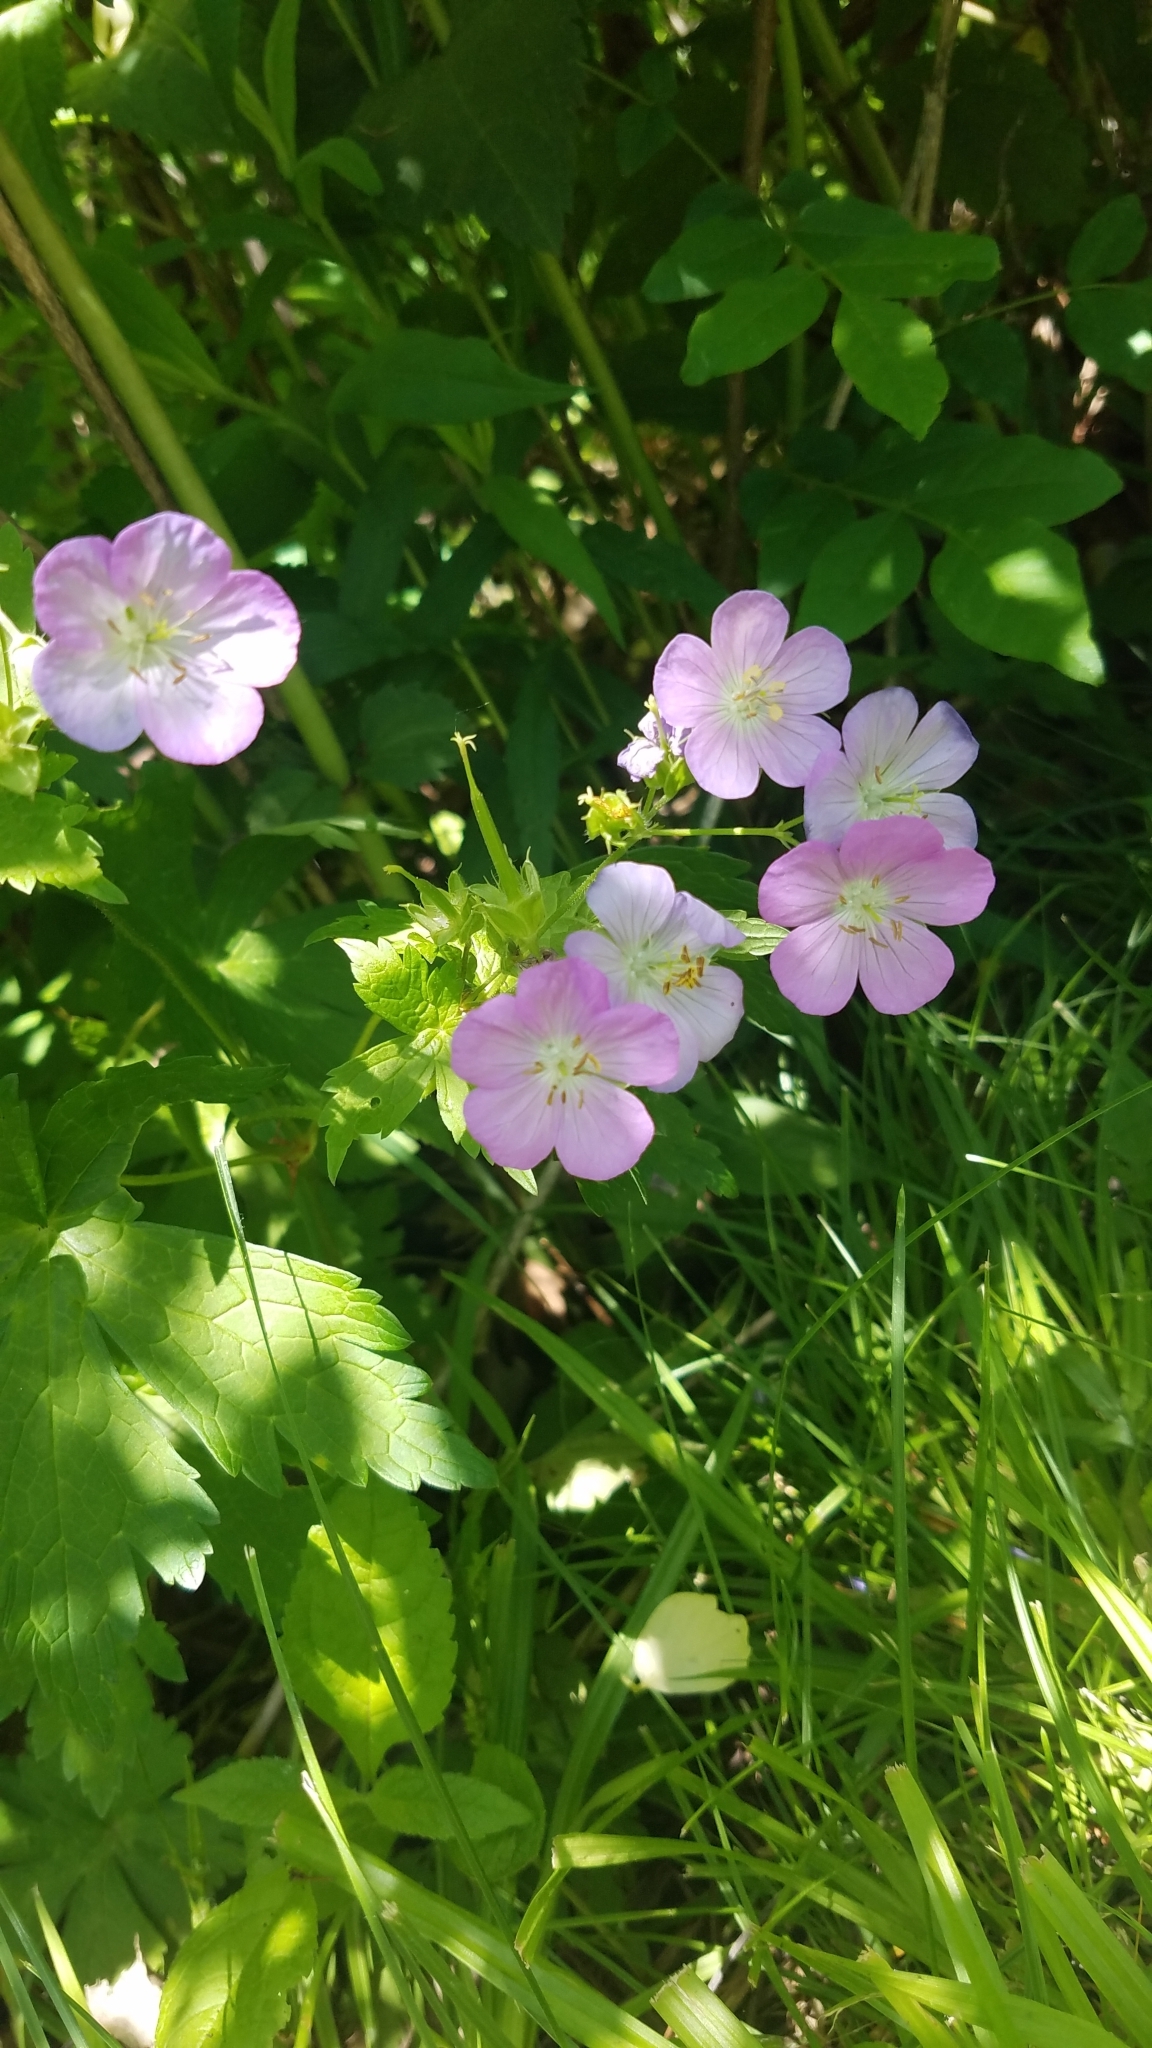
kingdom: Plantae
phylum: Tracheophyta
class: Magnoliopsida
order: Geraniales
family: Geraniaceae
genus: Geranium
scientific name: Geranium maculatum
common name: Spotted geranium
